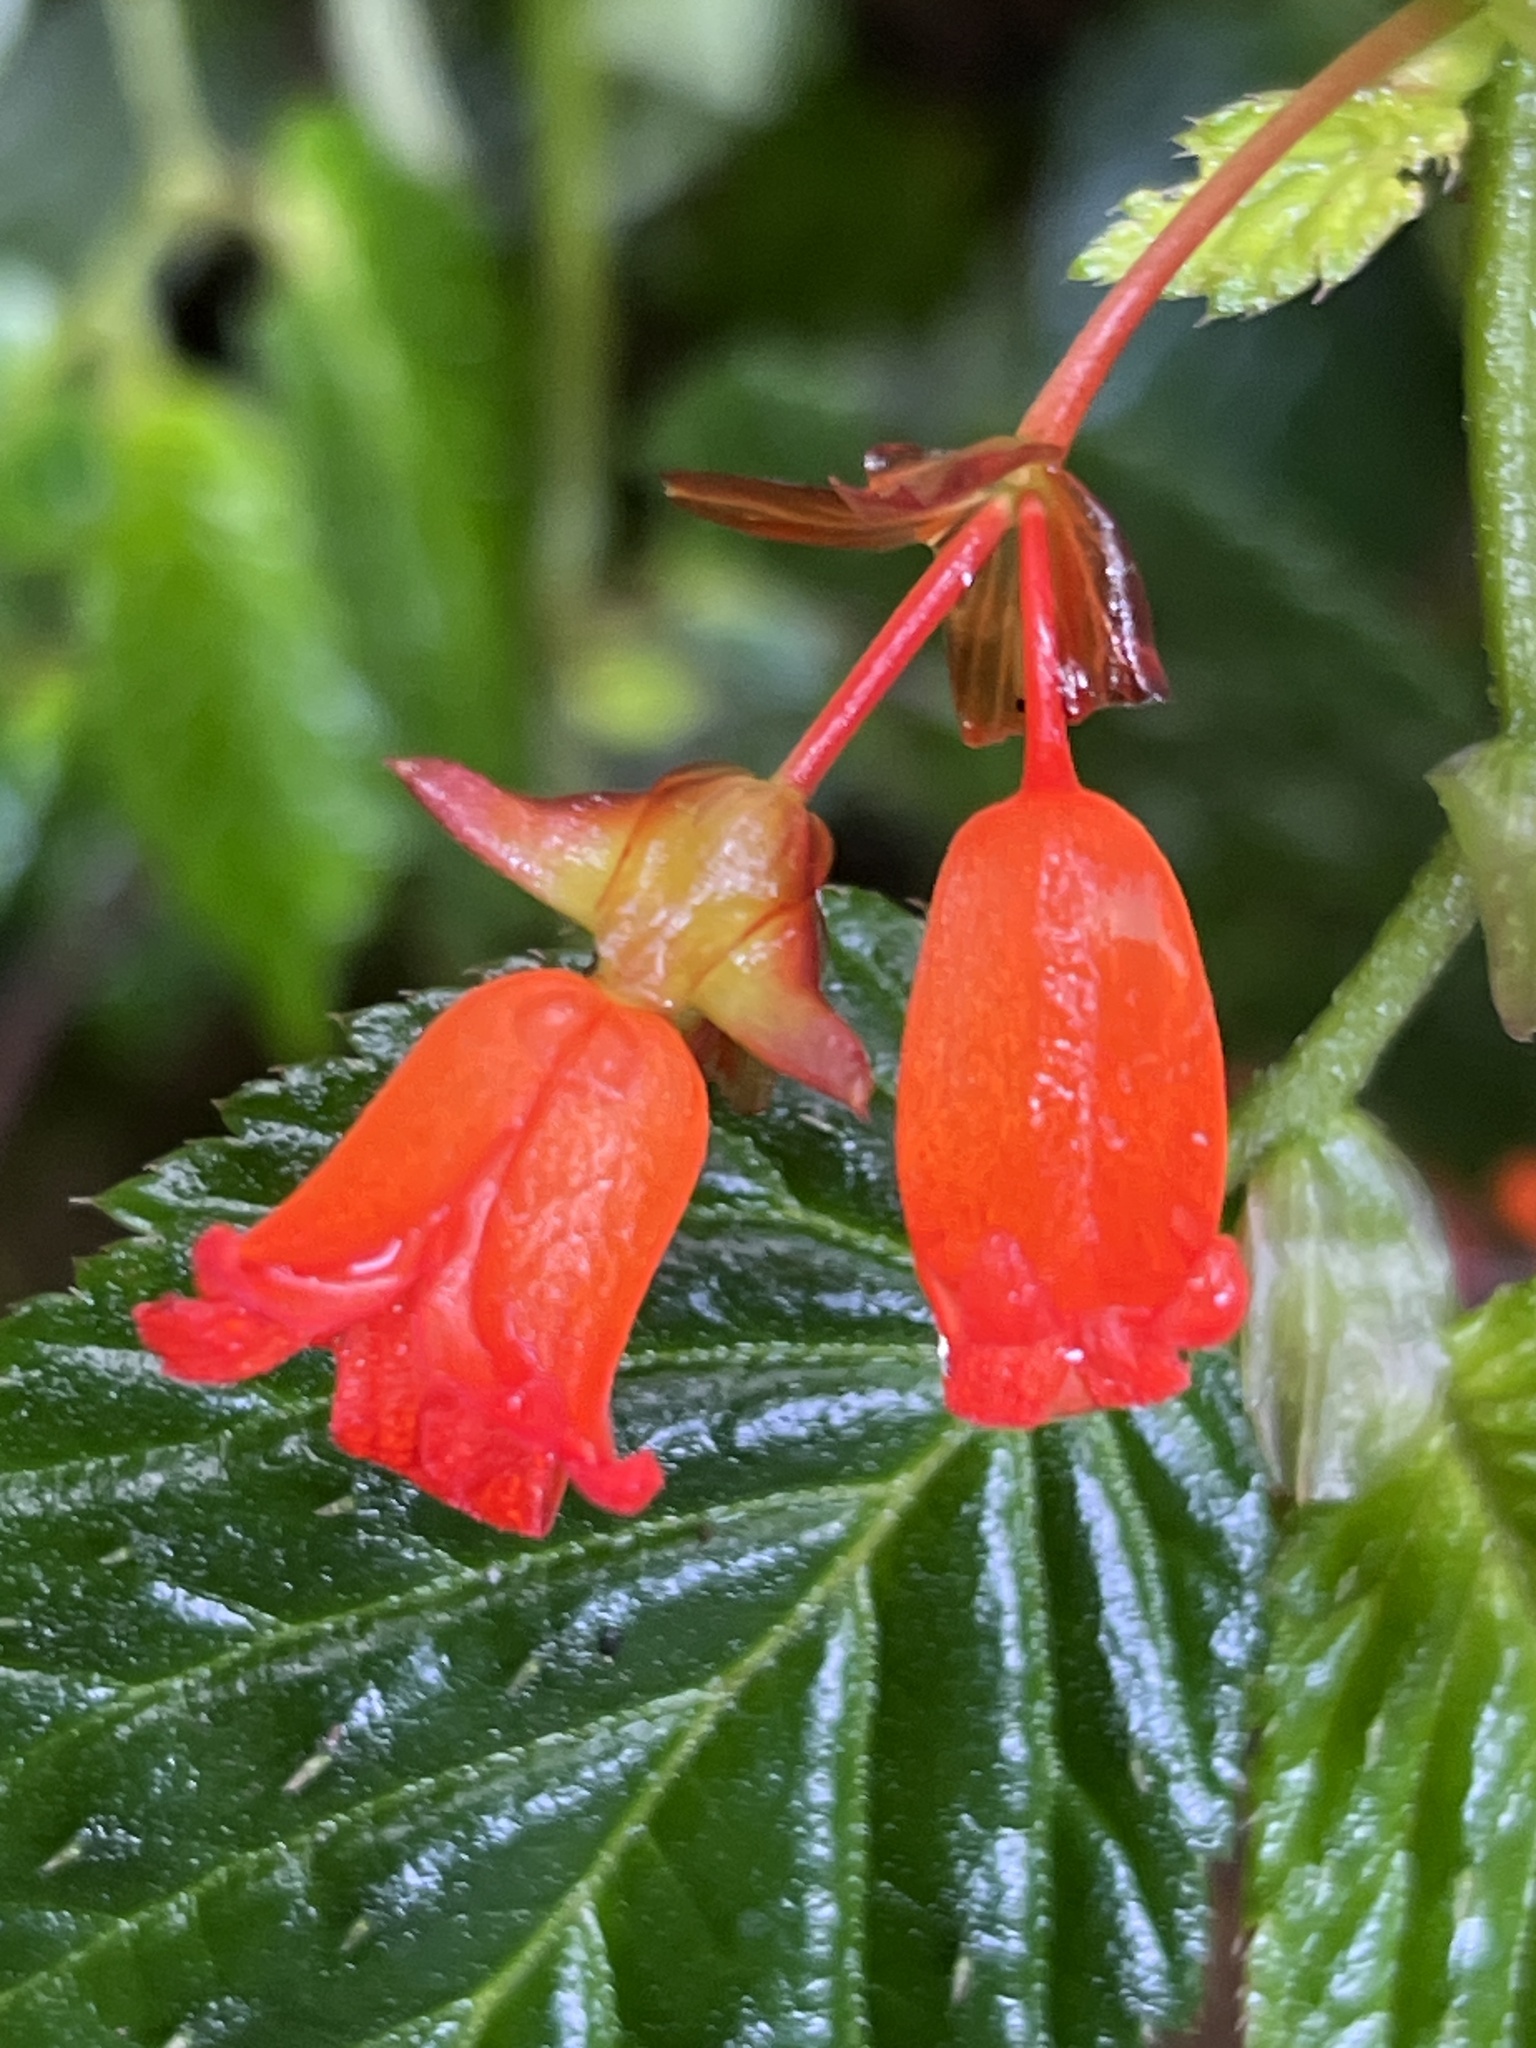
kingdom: Plantae
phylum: Tracheophyta
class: Magnoliopsida
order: Cucurbitales
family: Begoniaceae
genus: Begonia
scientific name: Begonia longirostris
